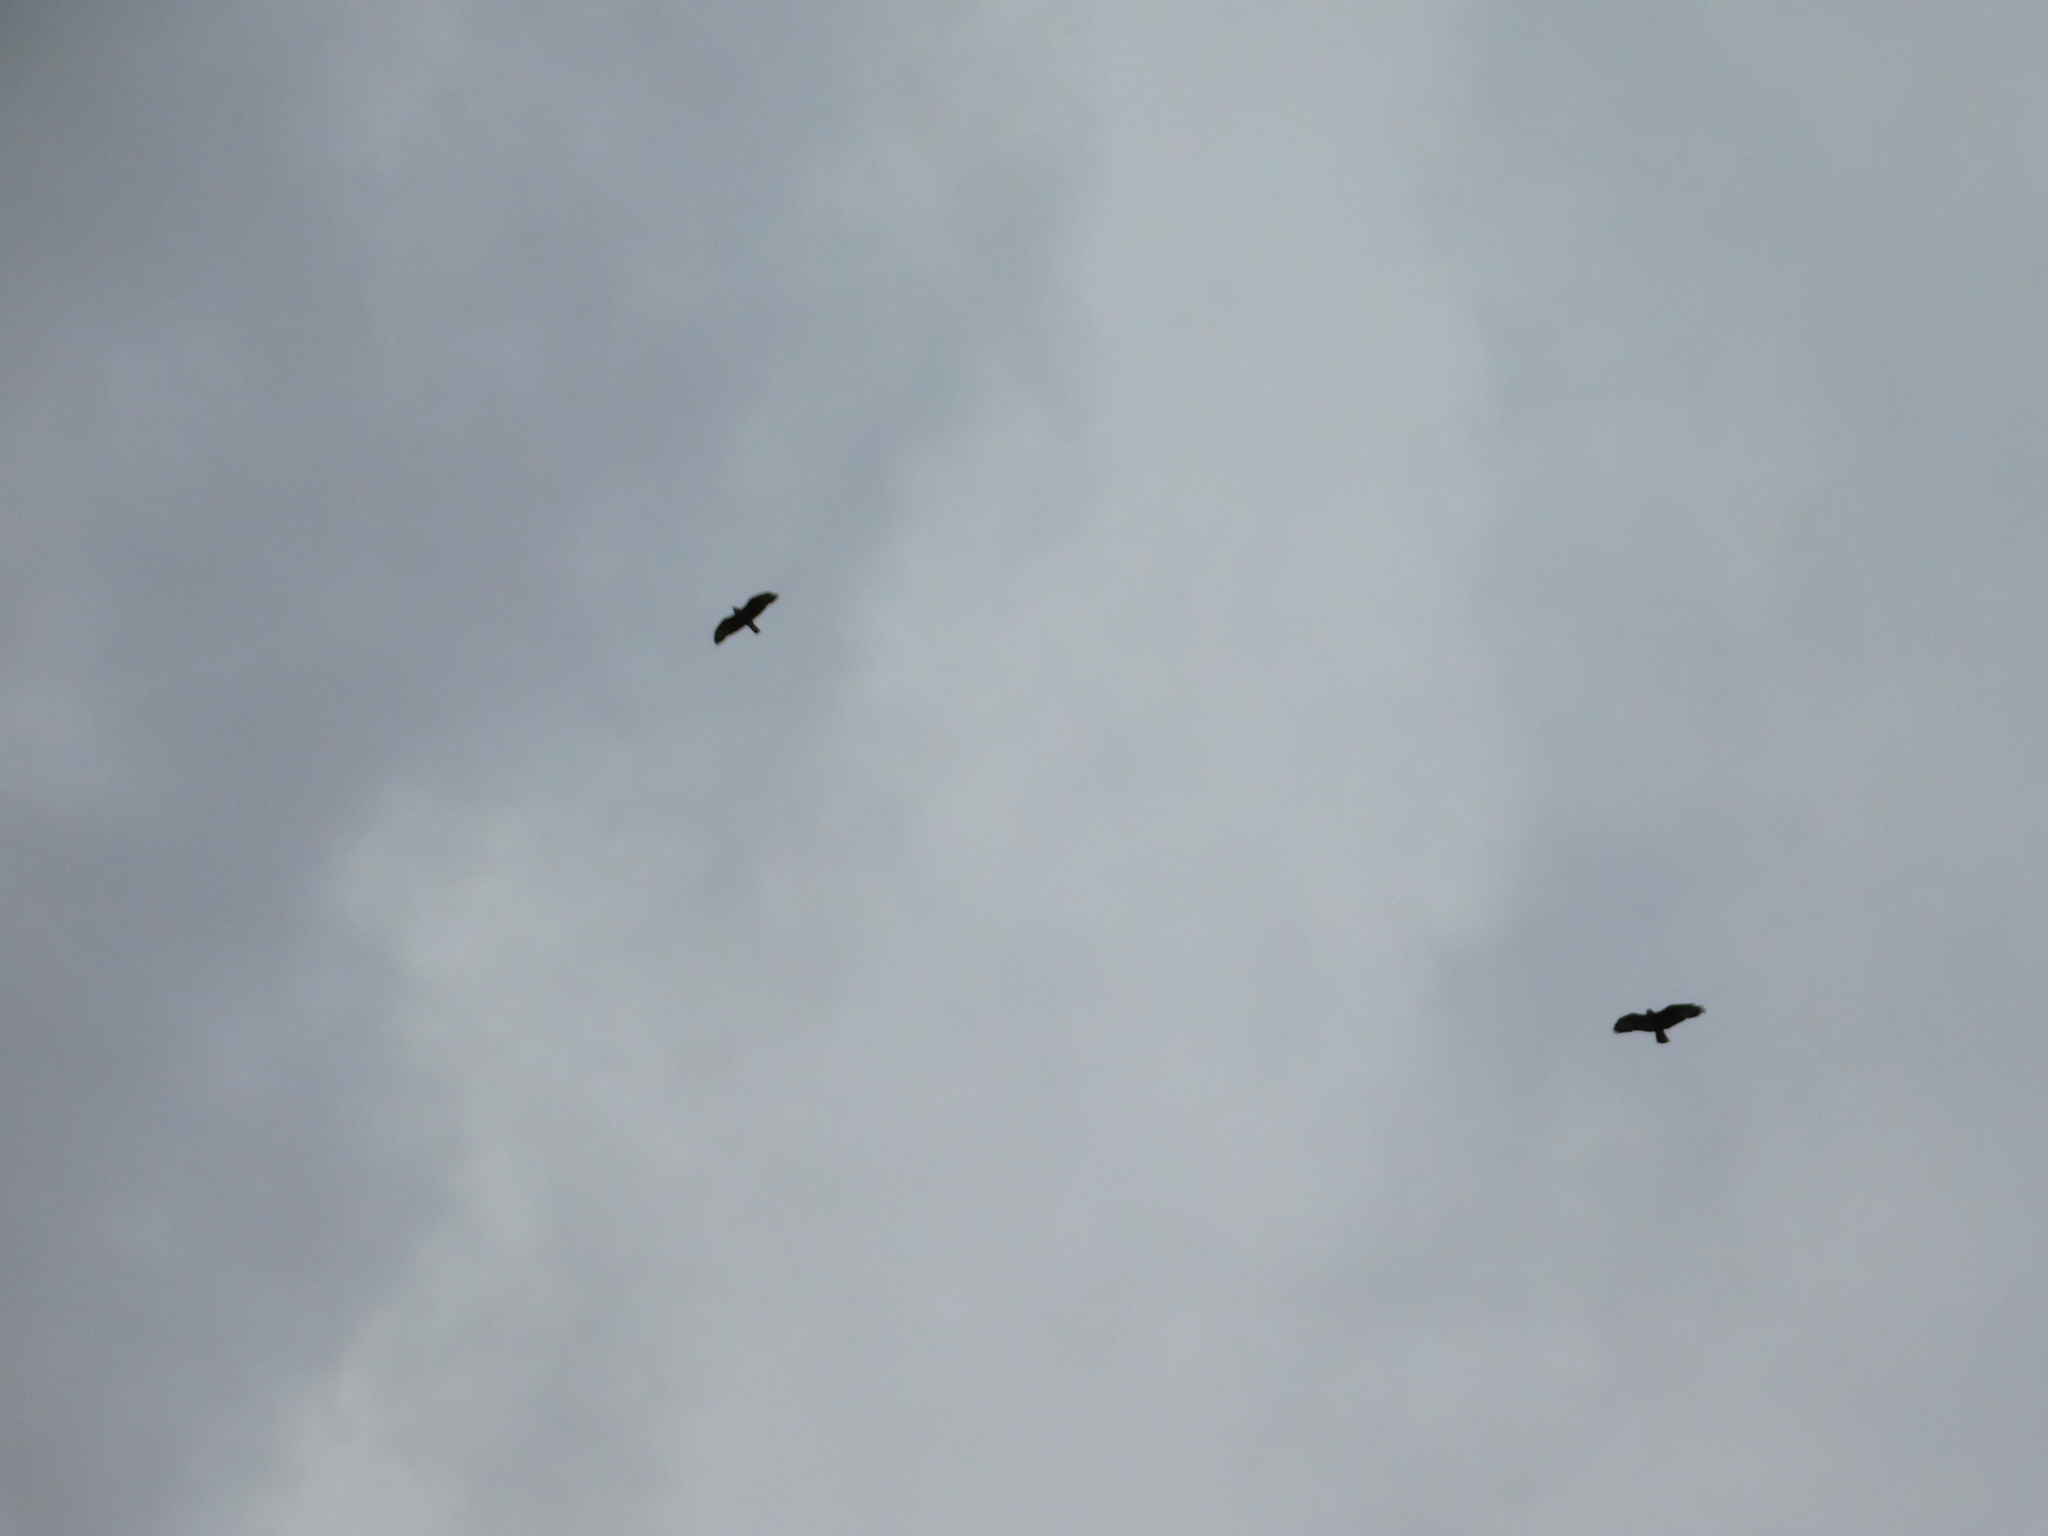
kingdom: Animalia
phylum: Chordata
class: Aves
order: Accipitriformes
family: Accipitridae
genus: Buteo
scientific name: Buteo buteo
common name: Common buzzard
